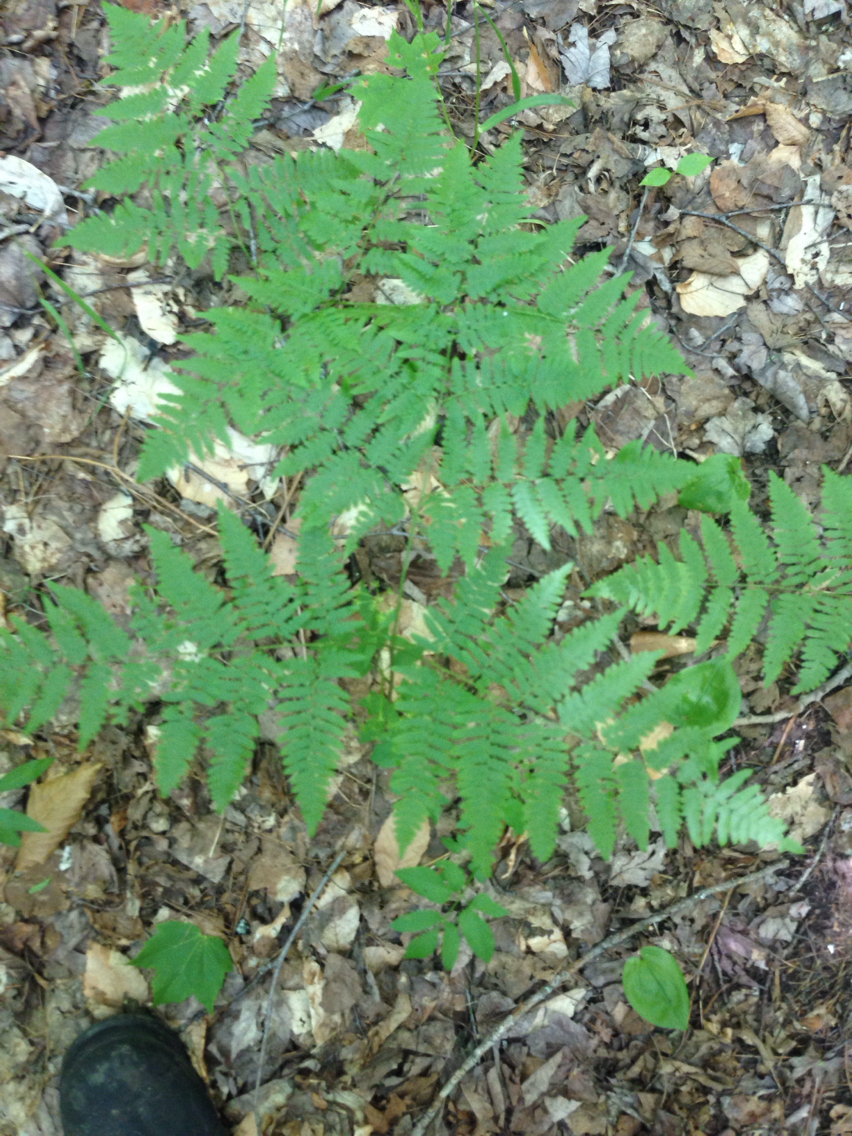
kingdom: Plantae
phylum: Tracheophyta
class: Polypodiopsida
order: Polypodiales
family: Dennstaedtiaceae
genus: Pteridium
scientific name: Pteridium aquilinum
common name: Bracken
